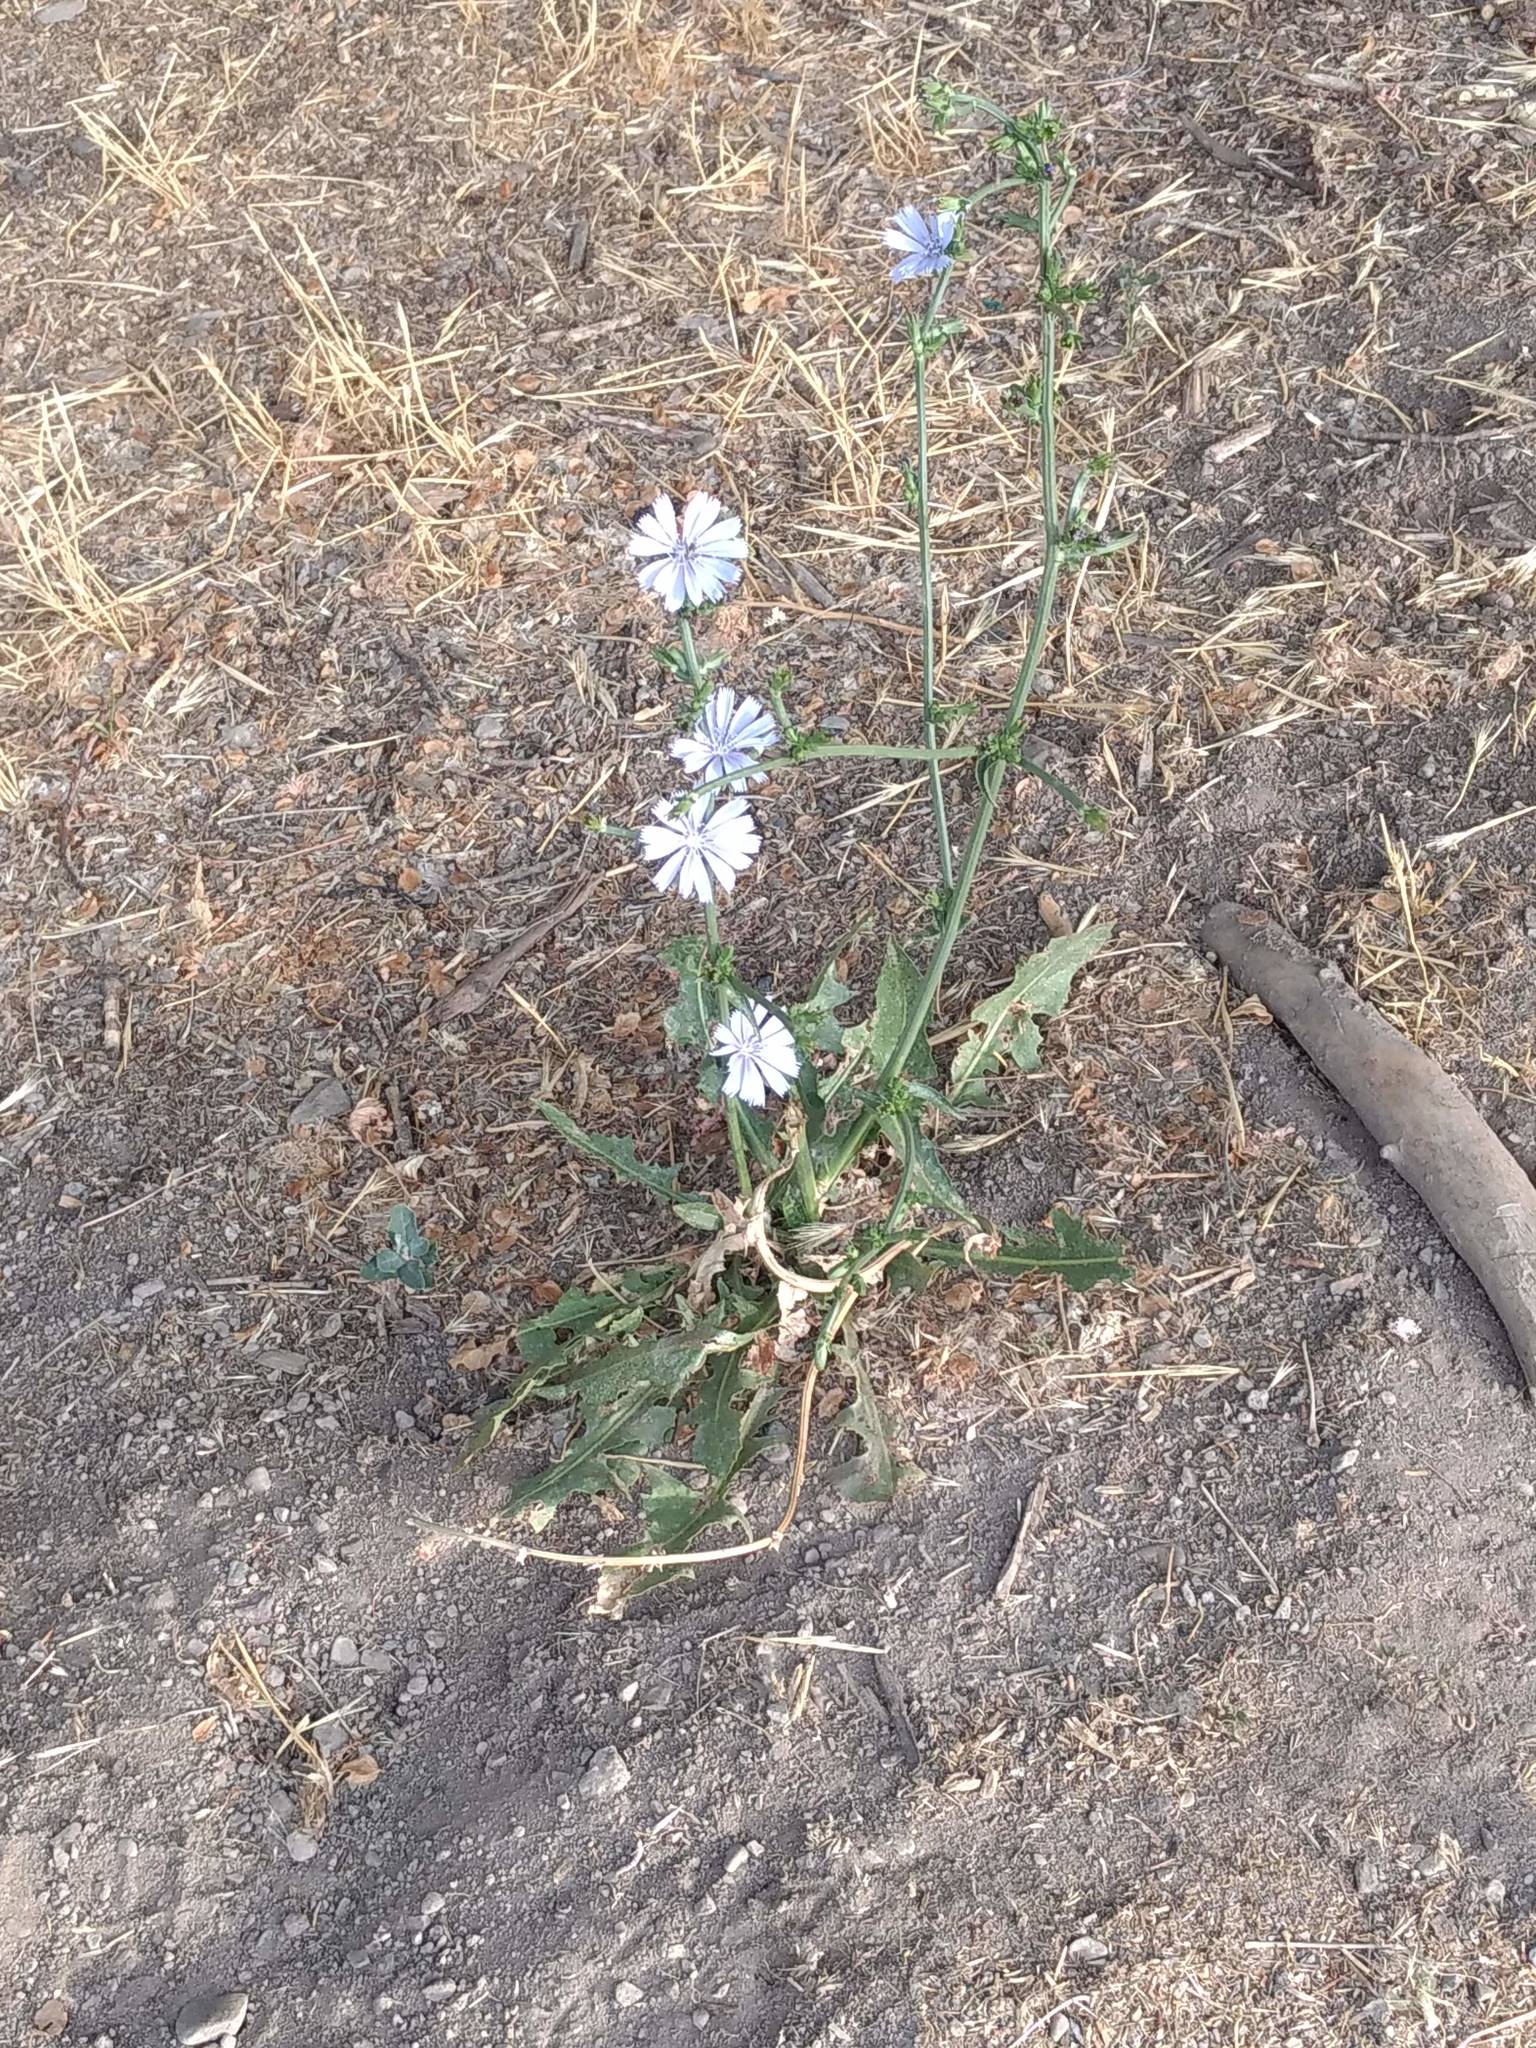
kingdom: Plantae
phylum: Tracheophyta
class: Magnoliopsida
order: Asterales
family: Asteraceae
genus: Cichorium
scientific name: Cichorium intybus
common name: Chicory
